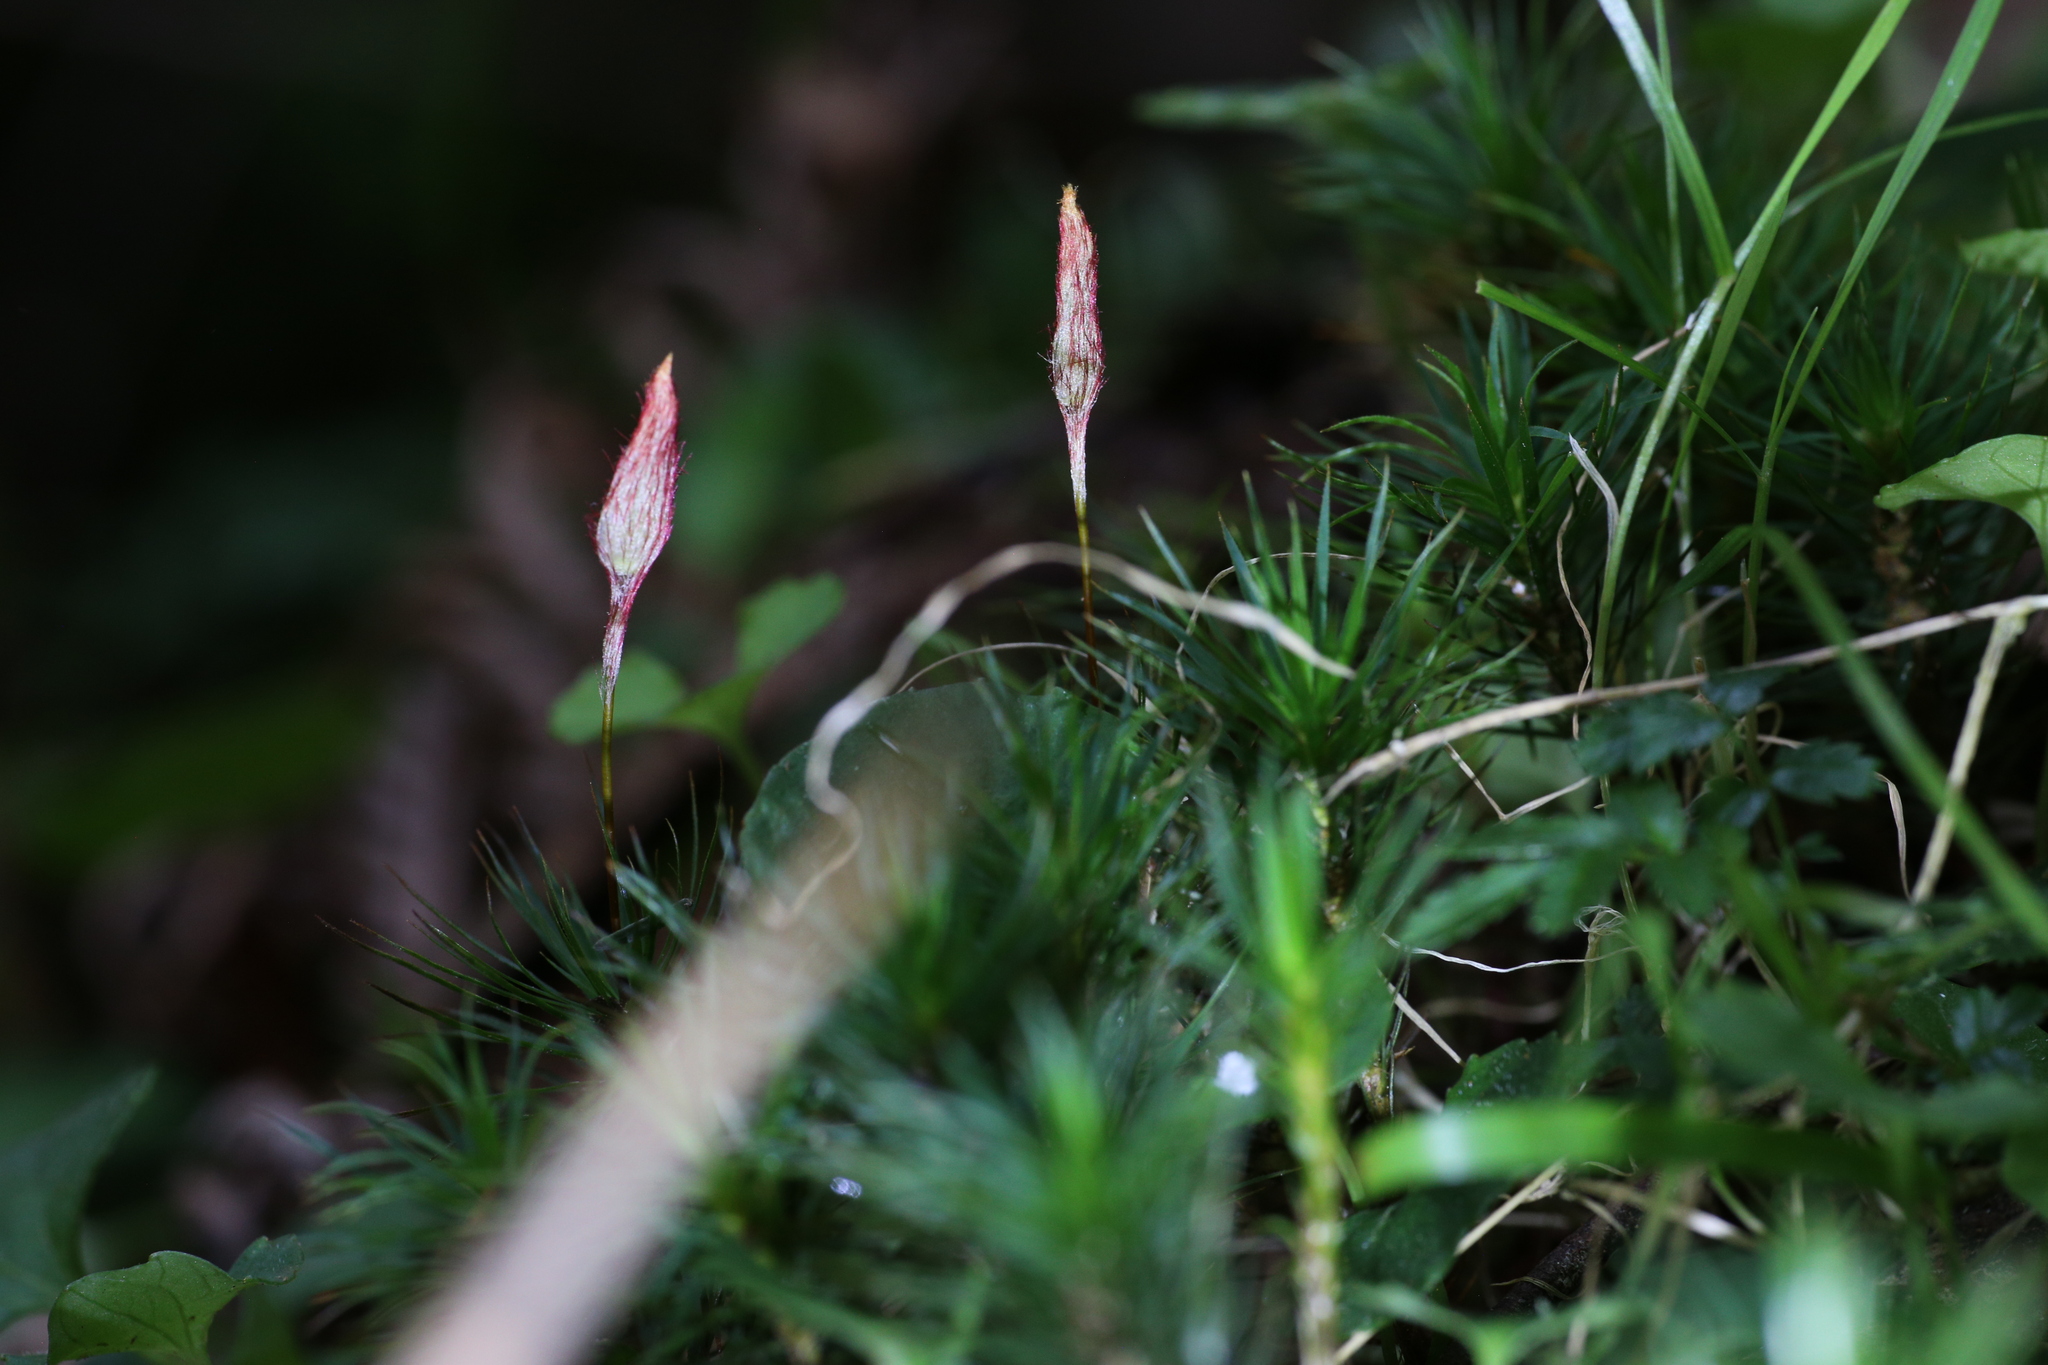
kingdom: Plantae
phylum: Bryophyta
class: Polytrichopsida
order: Polytrichales
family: Polytrichaceae
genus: Dawsonia
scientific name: Dawsonia polytrichoides
